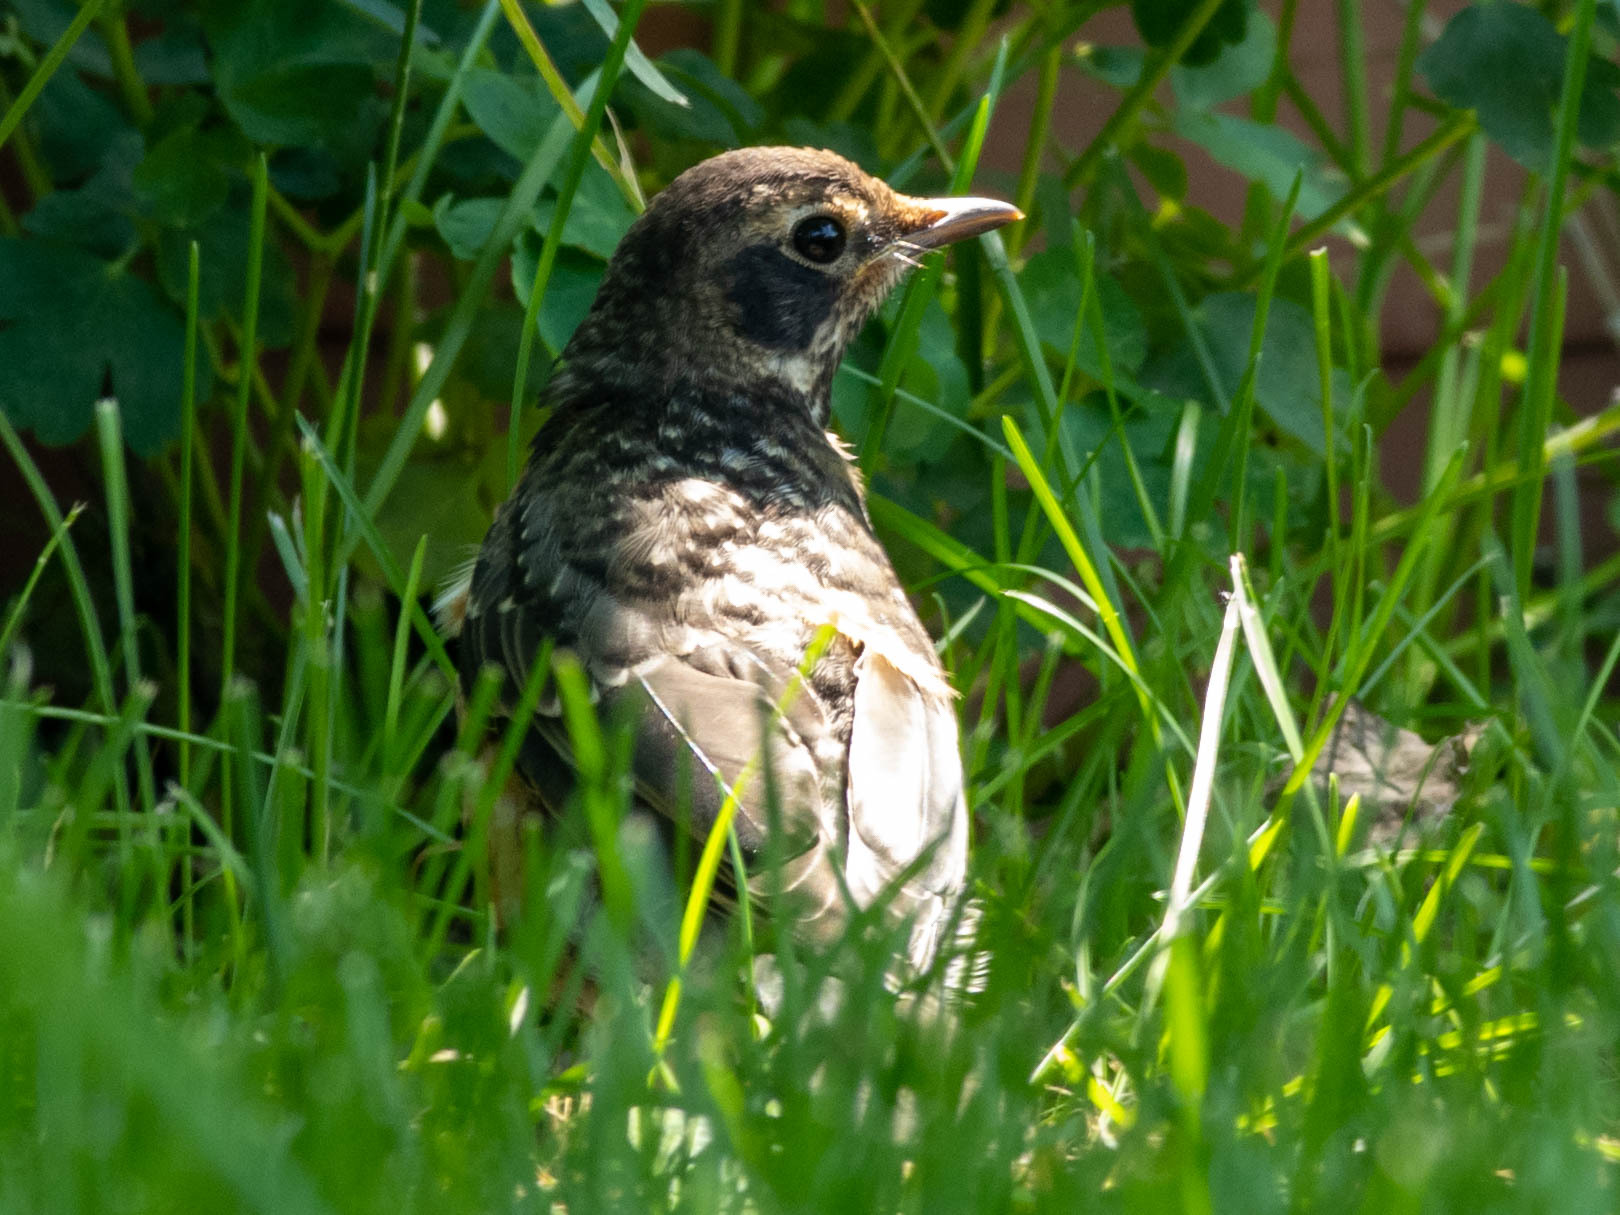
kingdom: Animalia
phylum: Chordata
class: Aves
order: Passeriformes
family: Turdidae
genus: Turdus
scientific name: Turdus migratorius
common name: American robin
